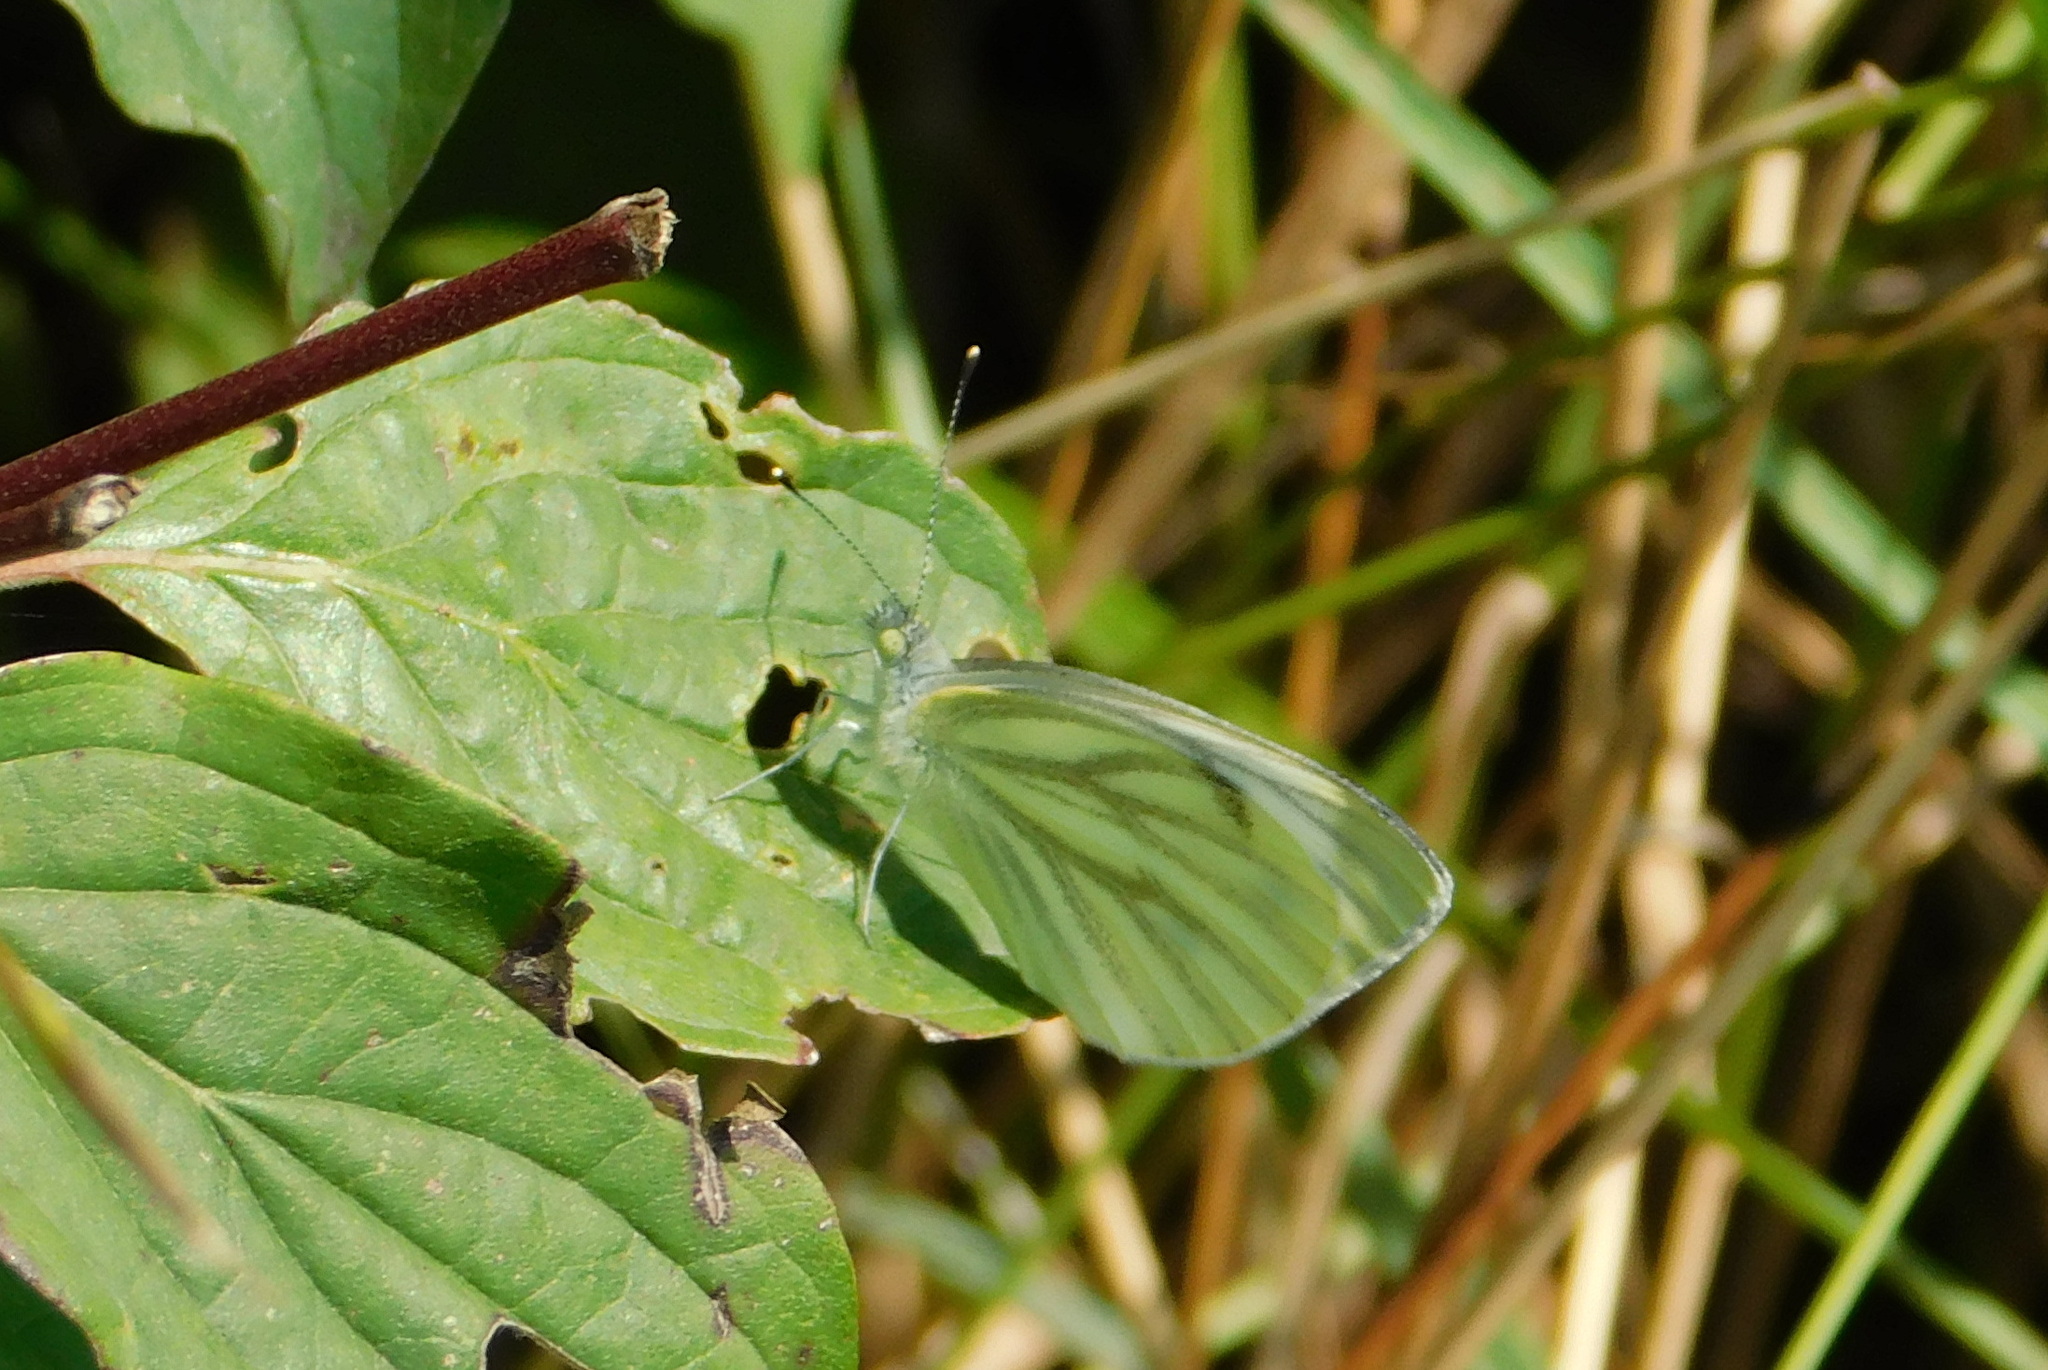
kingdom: Animalia
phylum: Arthropoda
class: Insecta
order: Lepidoptera
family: Pieridae
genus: Pieris
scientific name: Pieris napi
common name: Green-veined white
